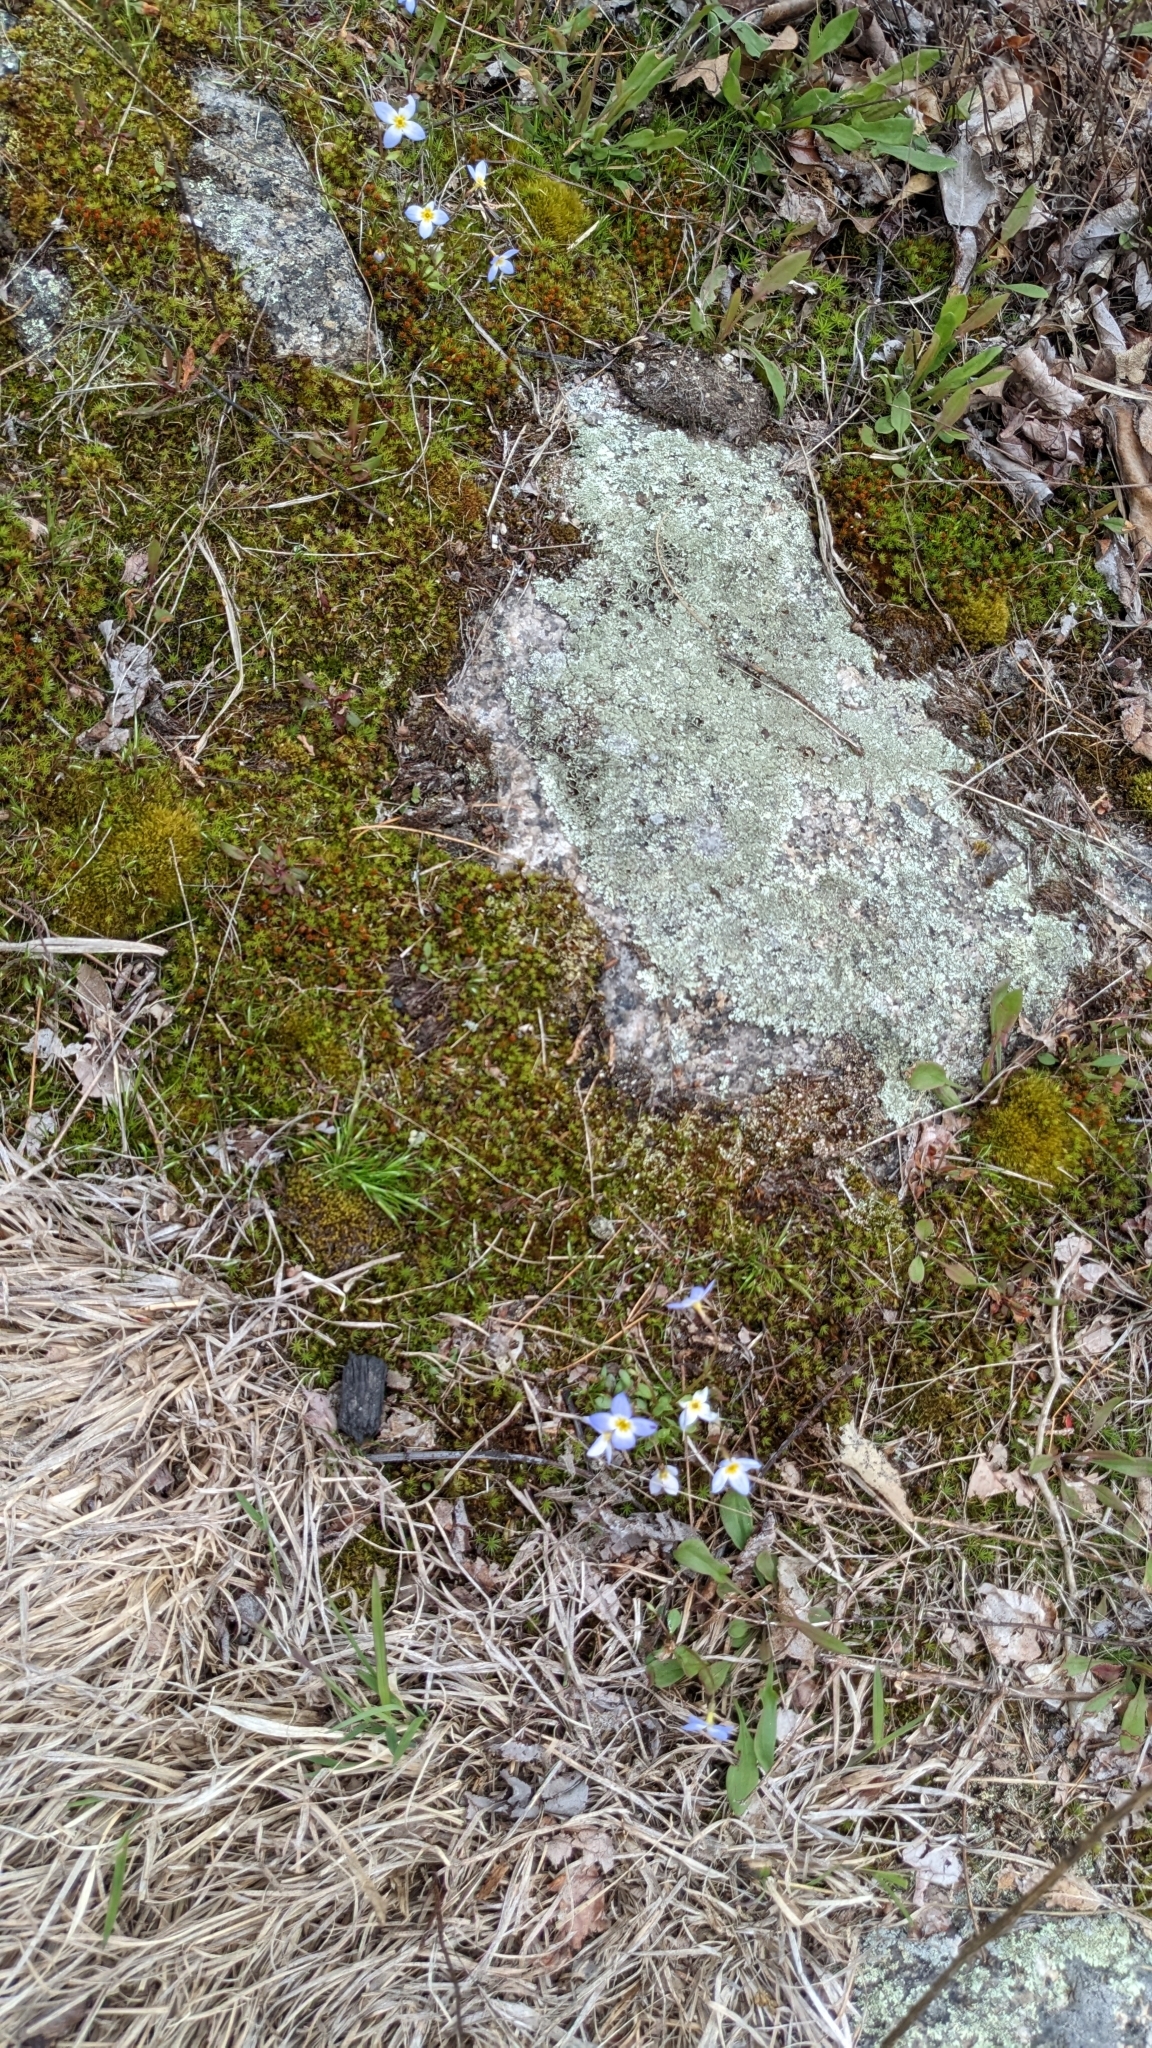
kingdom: Plantae
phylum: Tracheophyta
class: Magnoliopsida
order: Gentianales
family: Rubiaceae
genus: Houstonia
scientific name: Houstonia caerulea
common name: Bluets
